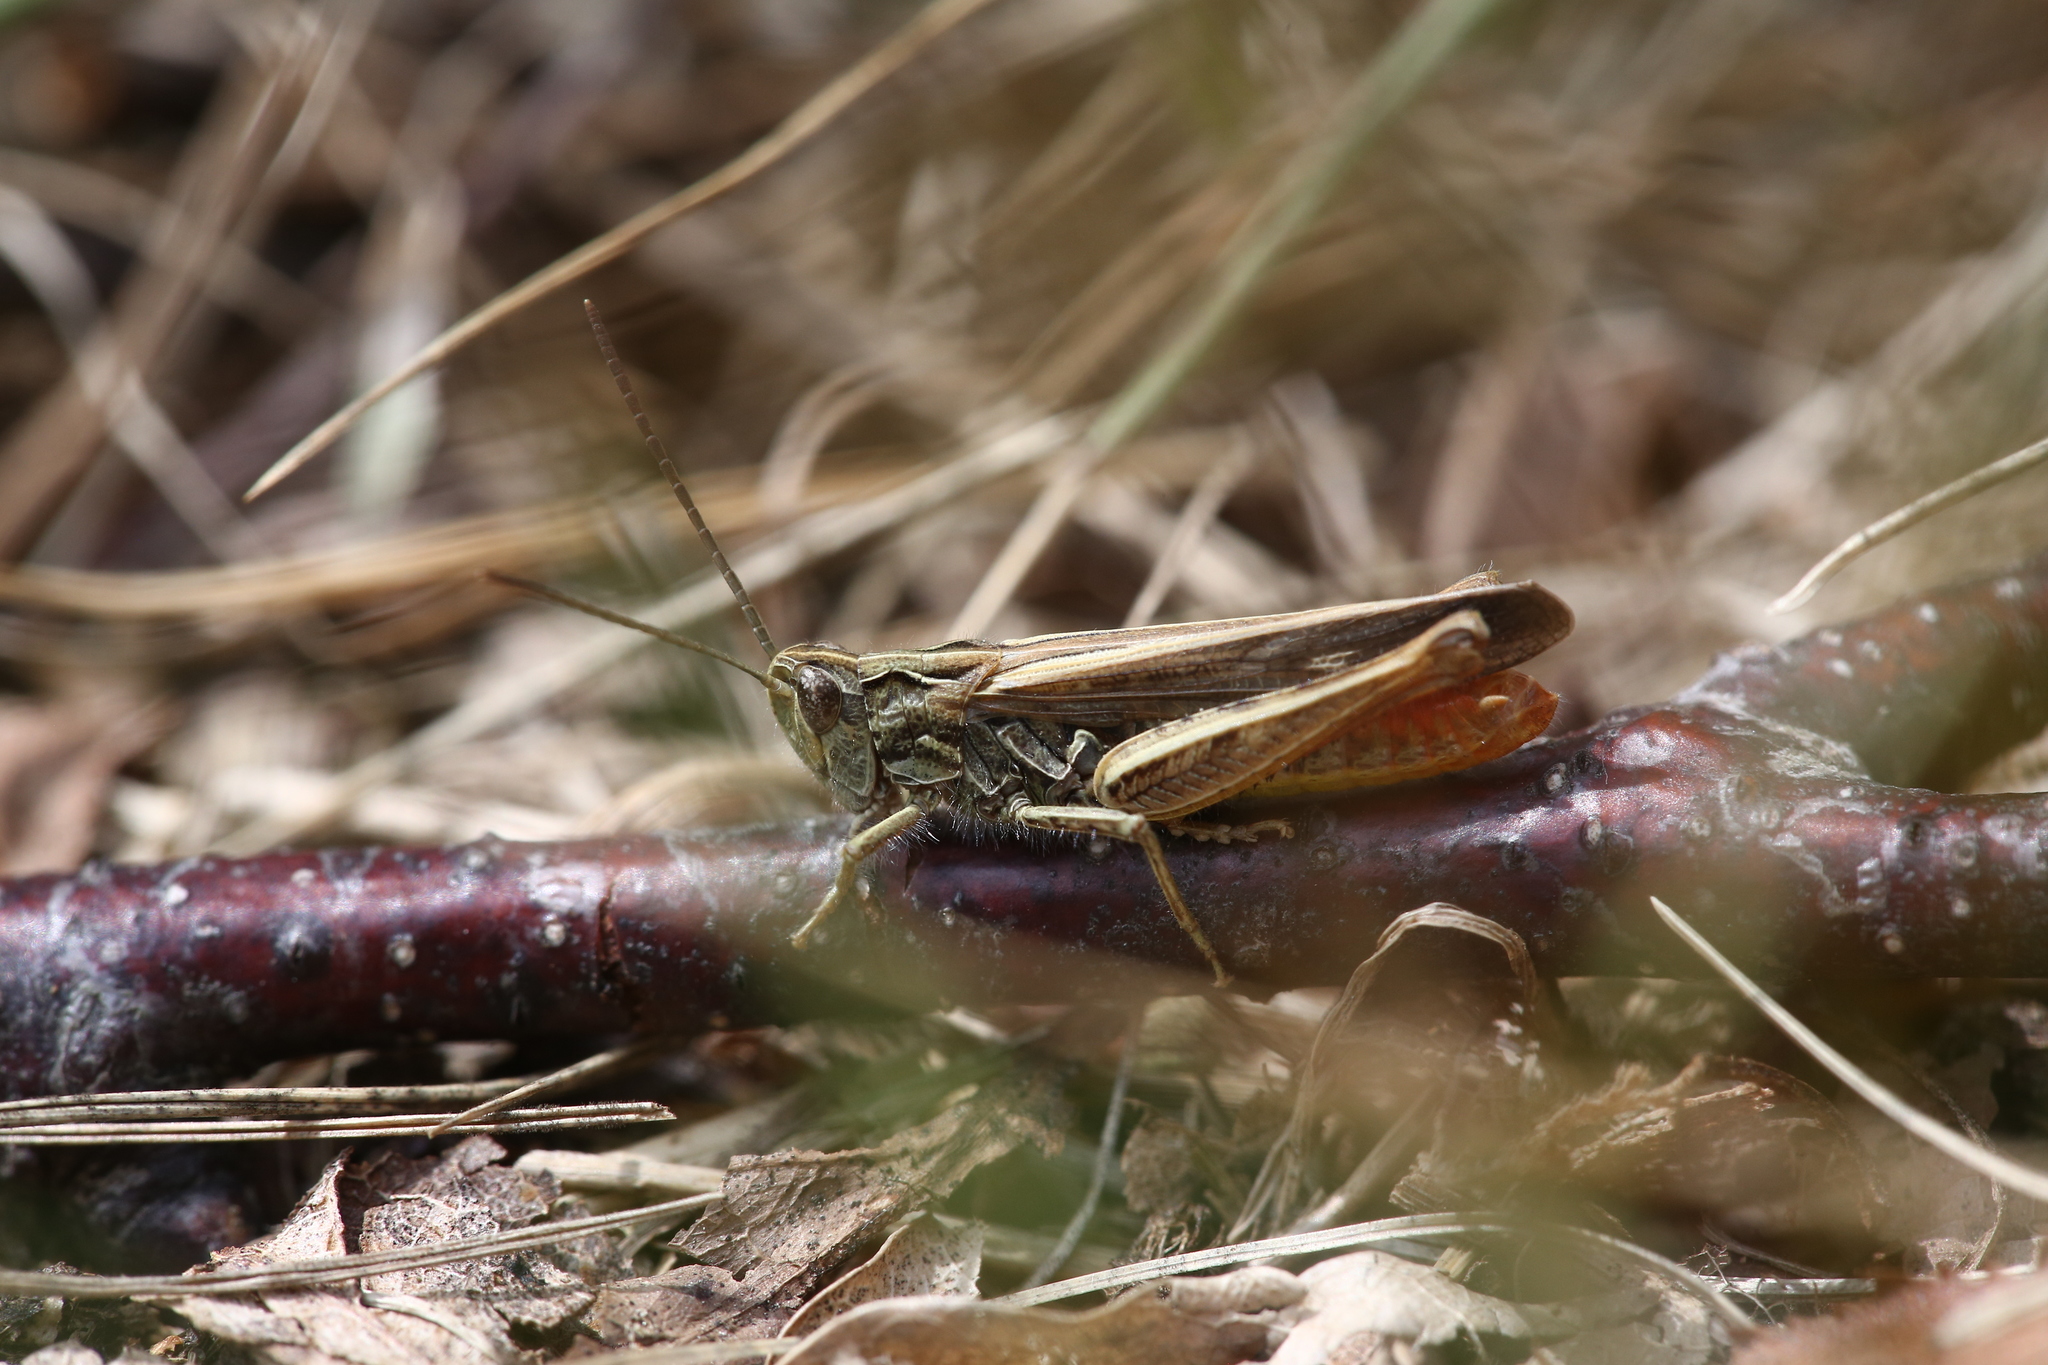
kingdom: Animalia
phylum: Arthropoda
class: Insecta
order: Orthoptera
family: Acrididae
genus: Chorthippus
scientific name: Chorthippus brunneus
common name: Field grasshopper
